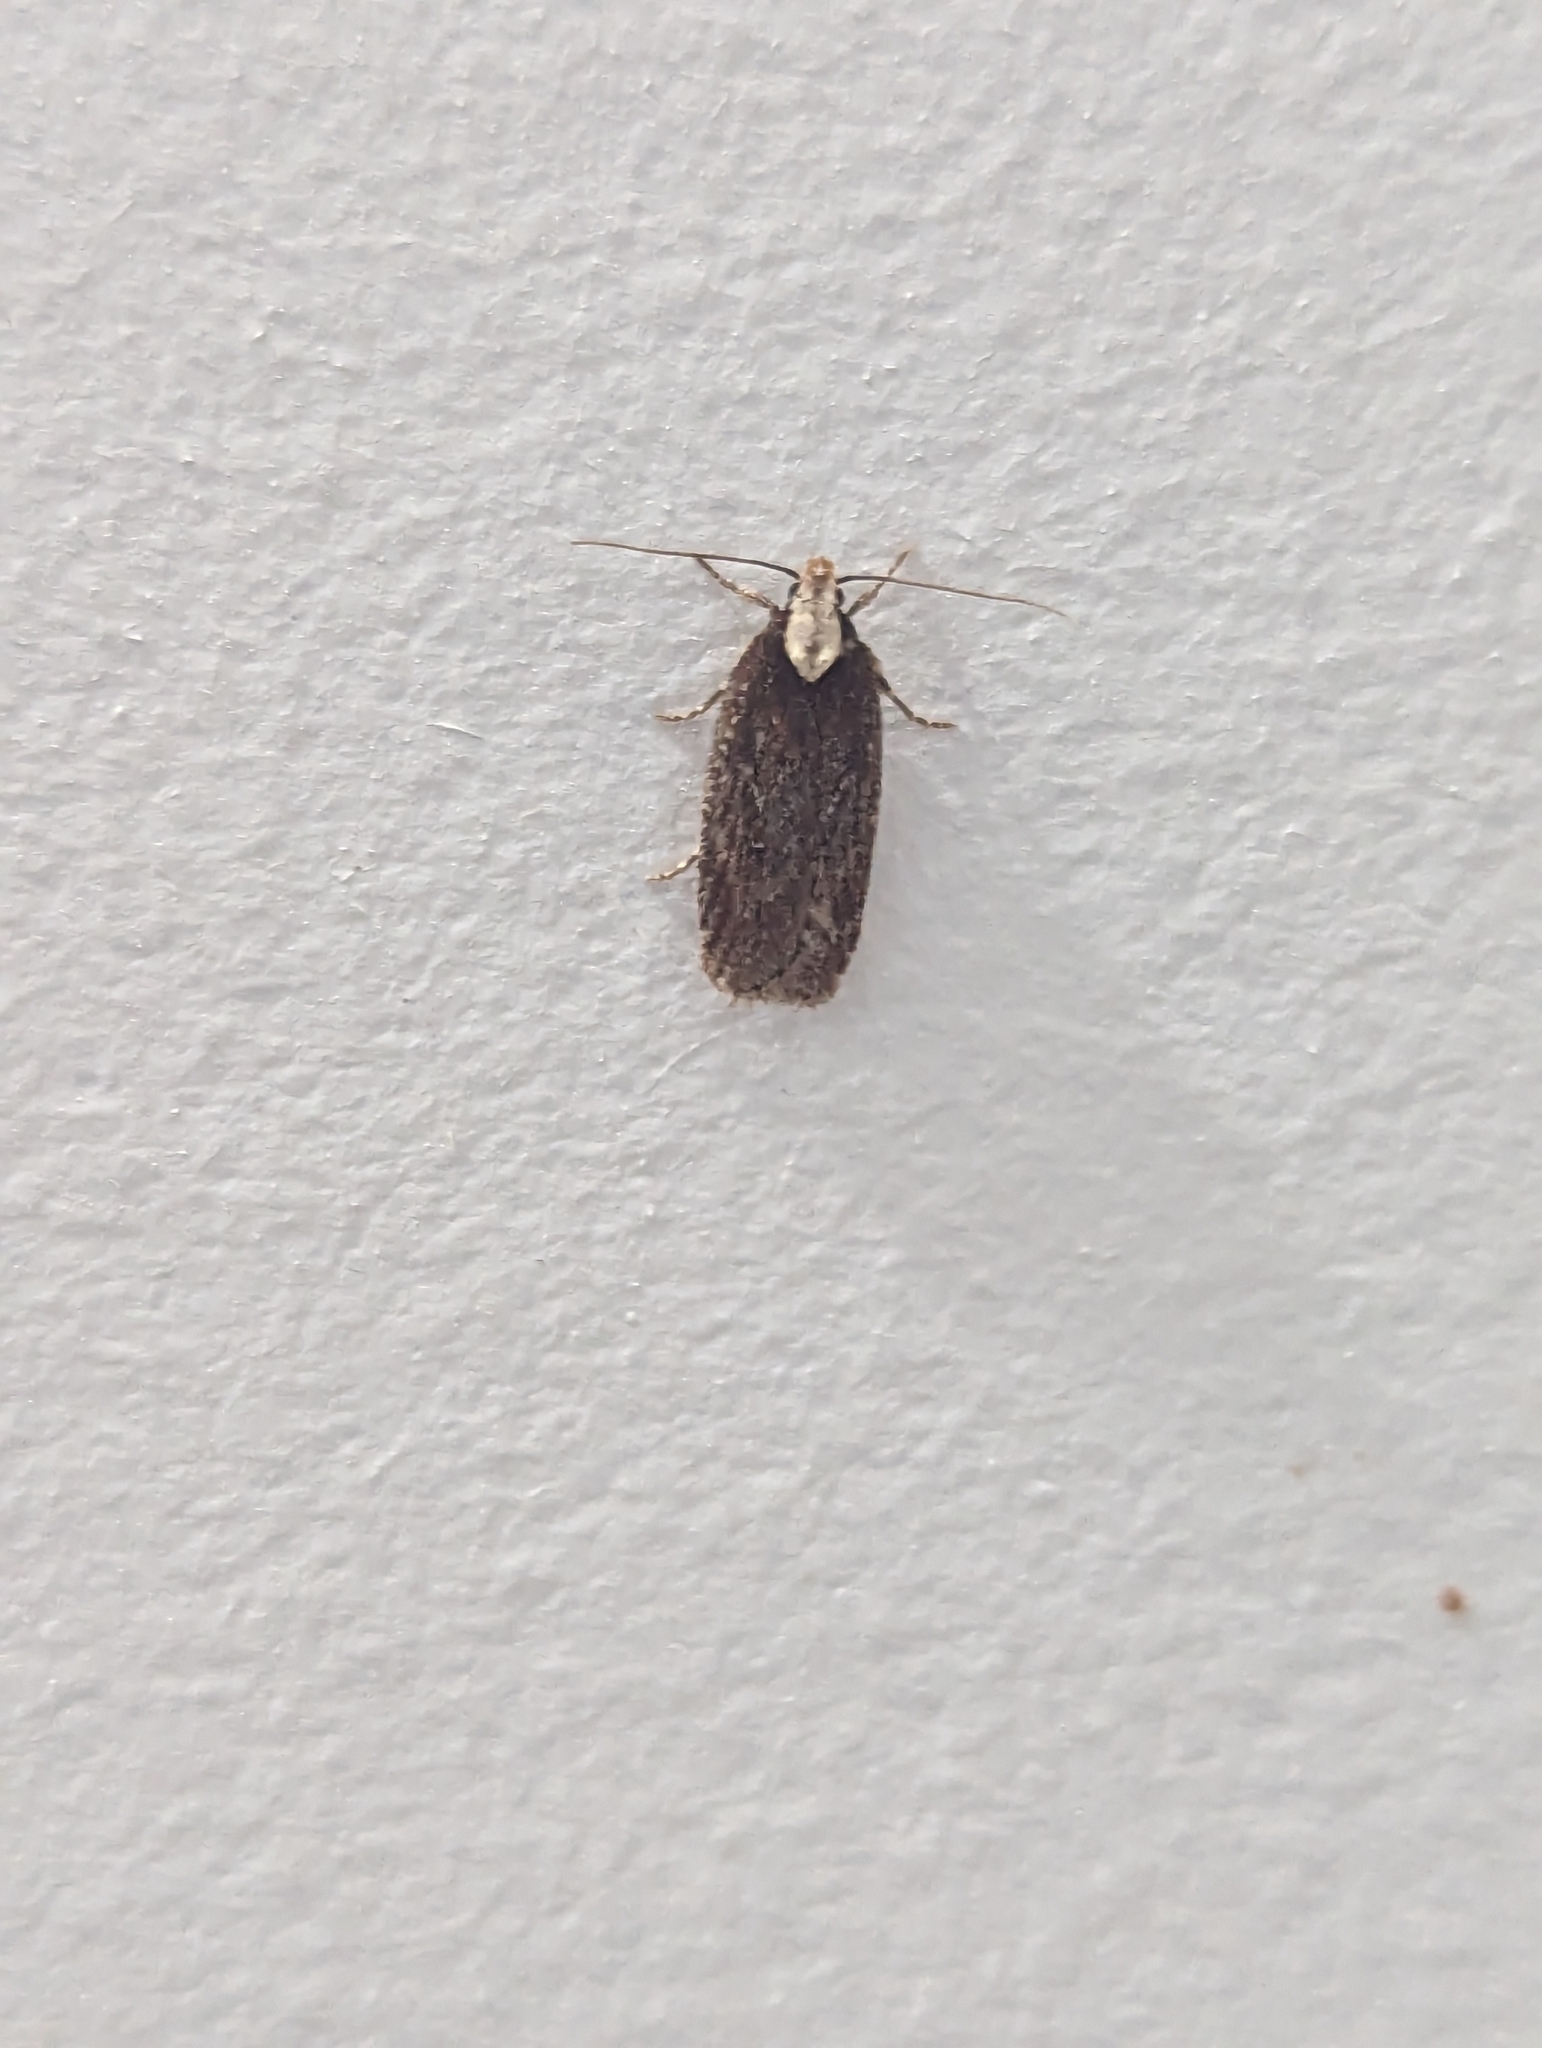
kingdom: Animalia
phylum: Arthropoda
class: Insecta
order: Lepidoptera
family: Depressariidae
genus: Depressaria
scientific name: Depressaria depressana
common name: Lost flat-body
